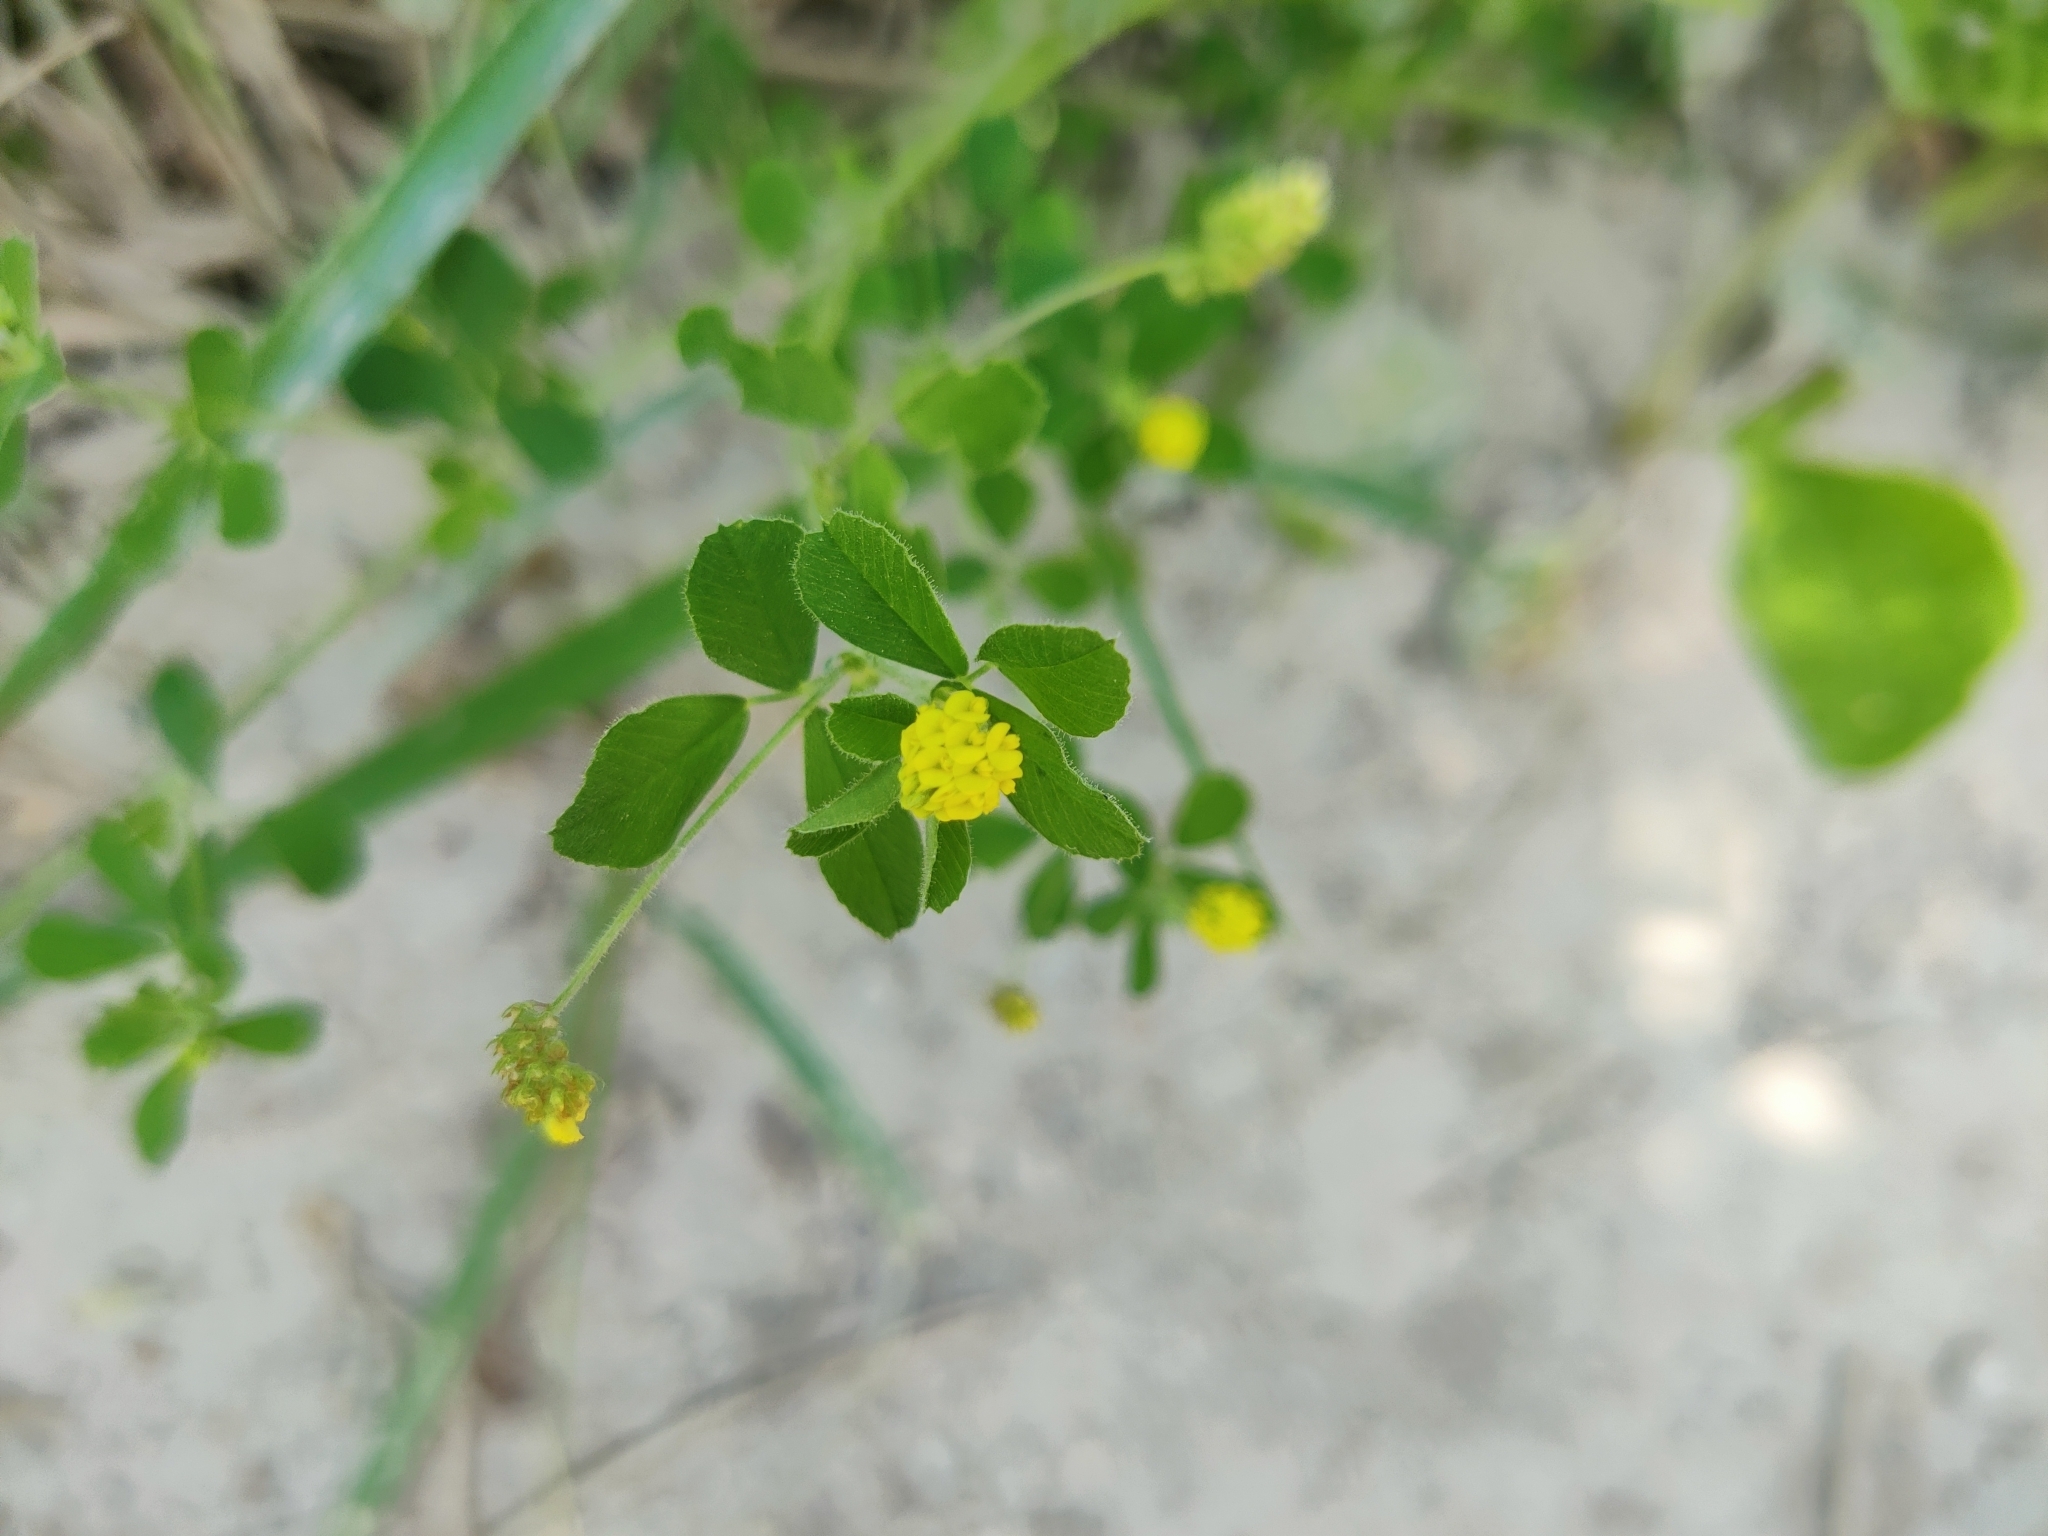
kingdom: Plantae
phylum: Tracheophyta
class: Magnoliopsida
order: Fabales
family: Fabaceae
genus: Medicago
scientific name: Medicago lupulina
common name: Black medick
